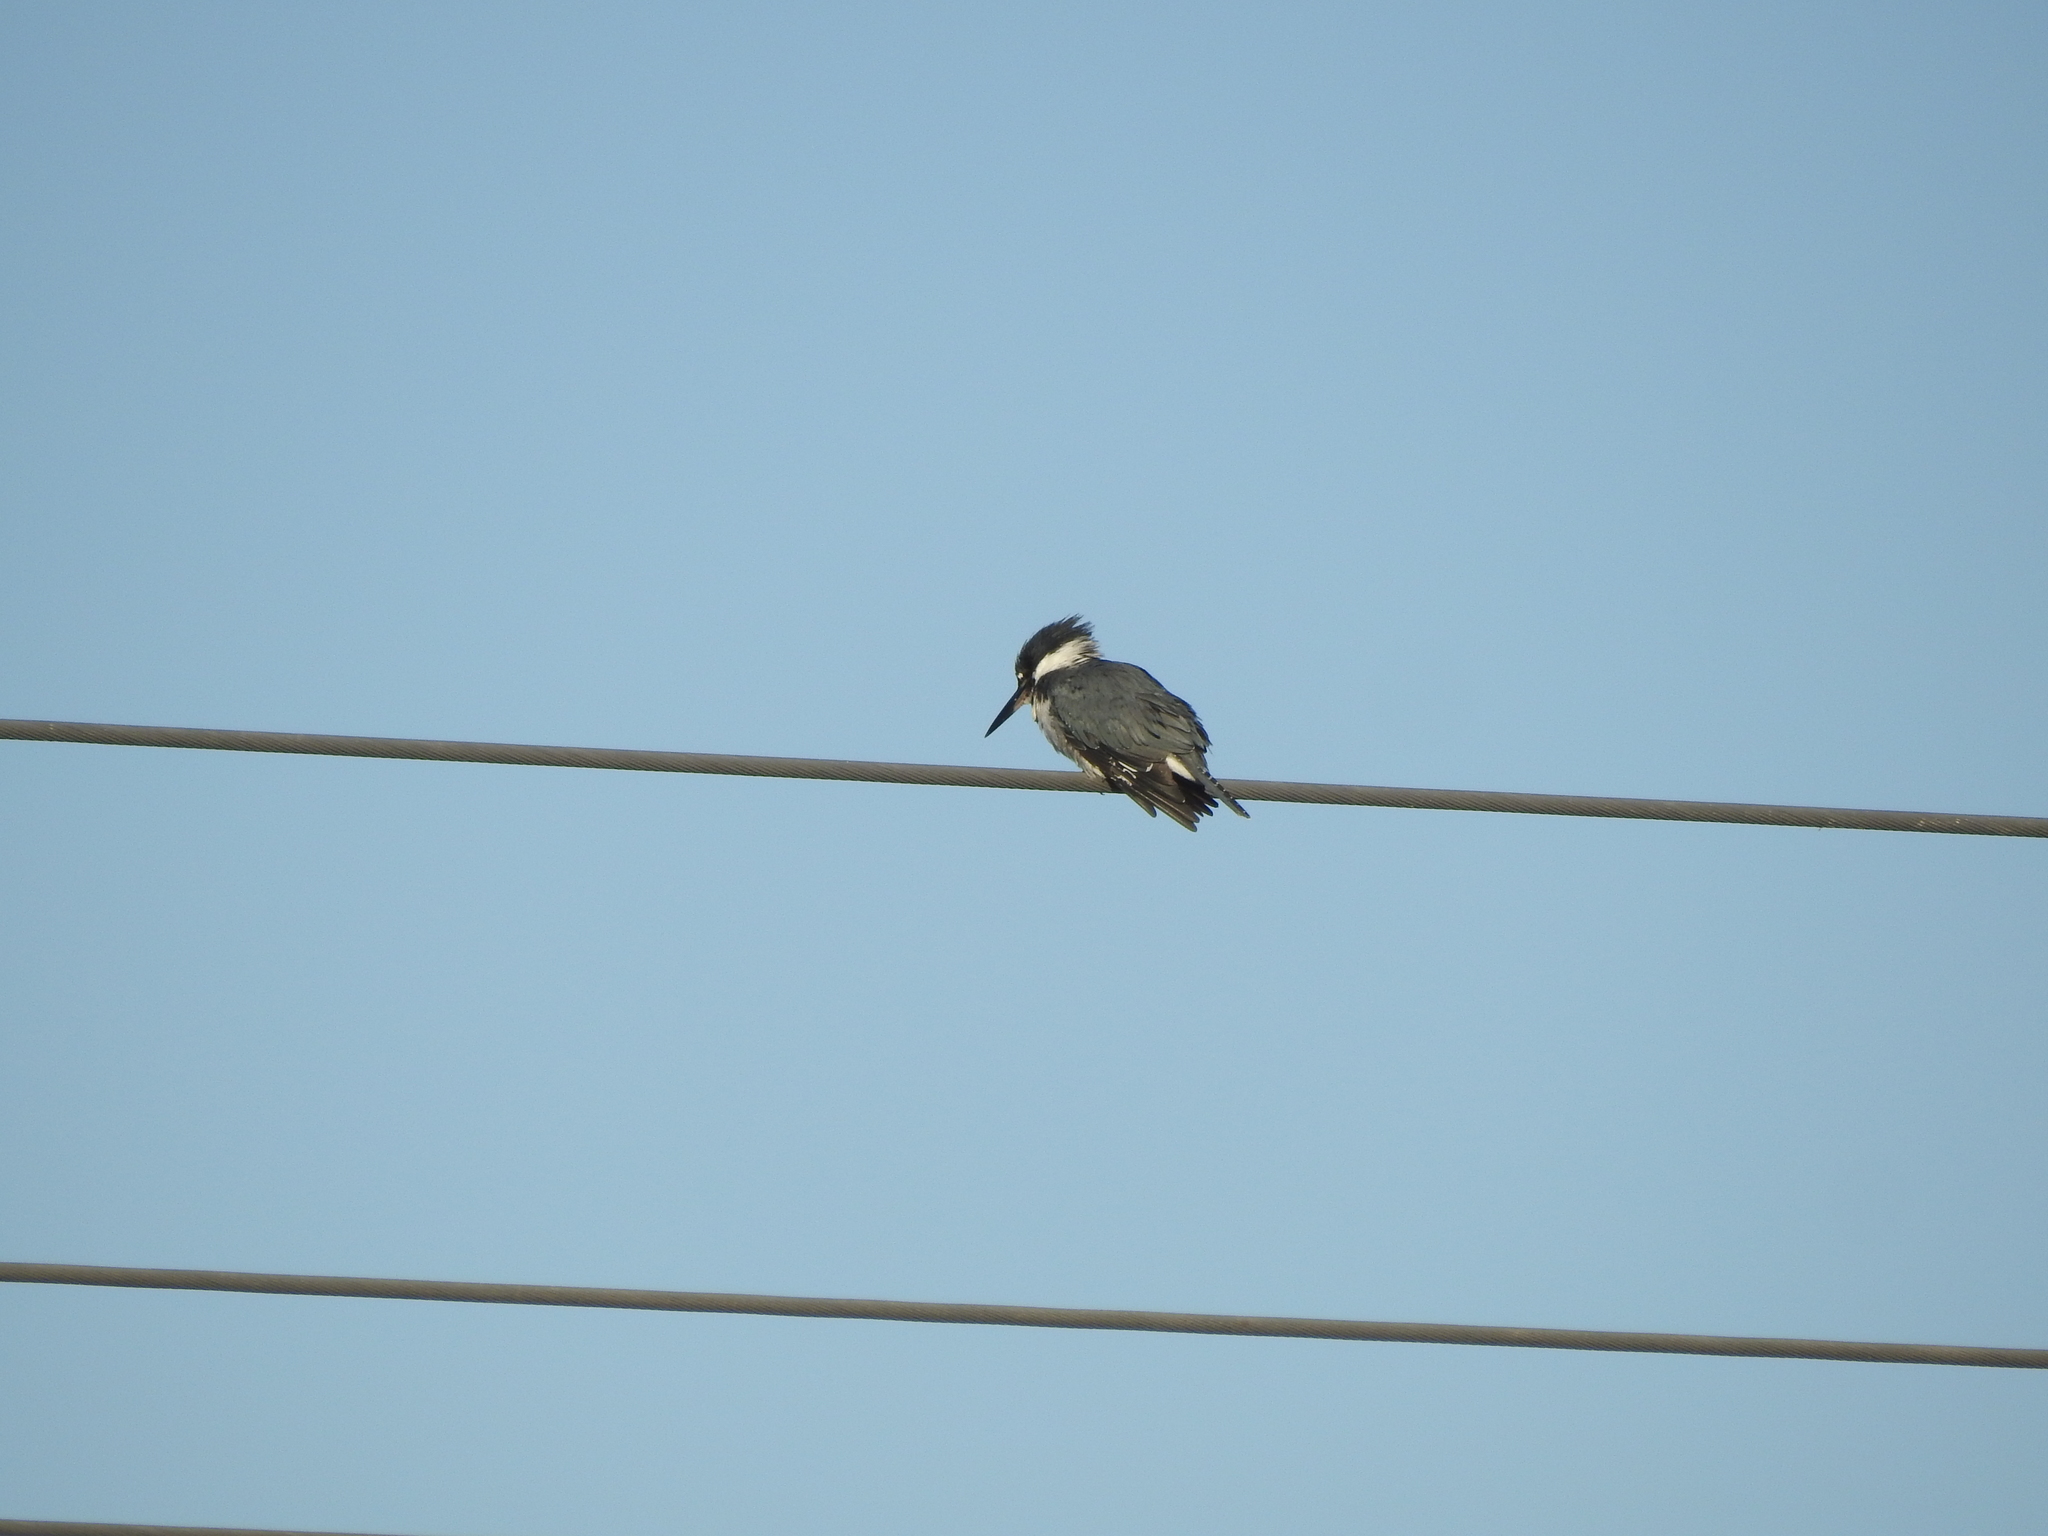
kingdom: Animalia
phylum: Chordata
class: Aves
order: Coraciiformes
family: Alcedinidae
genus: Megaceryle
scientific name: Megaceryle alcyon
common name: Belted kingfisher
